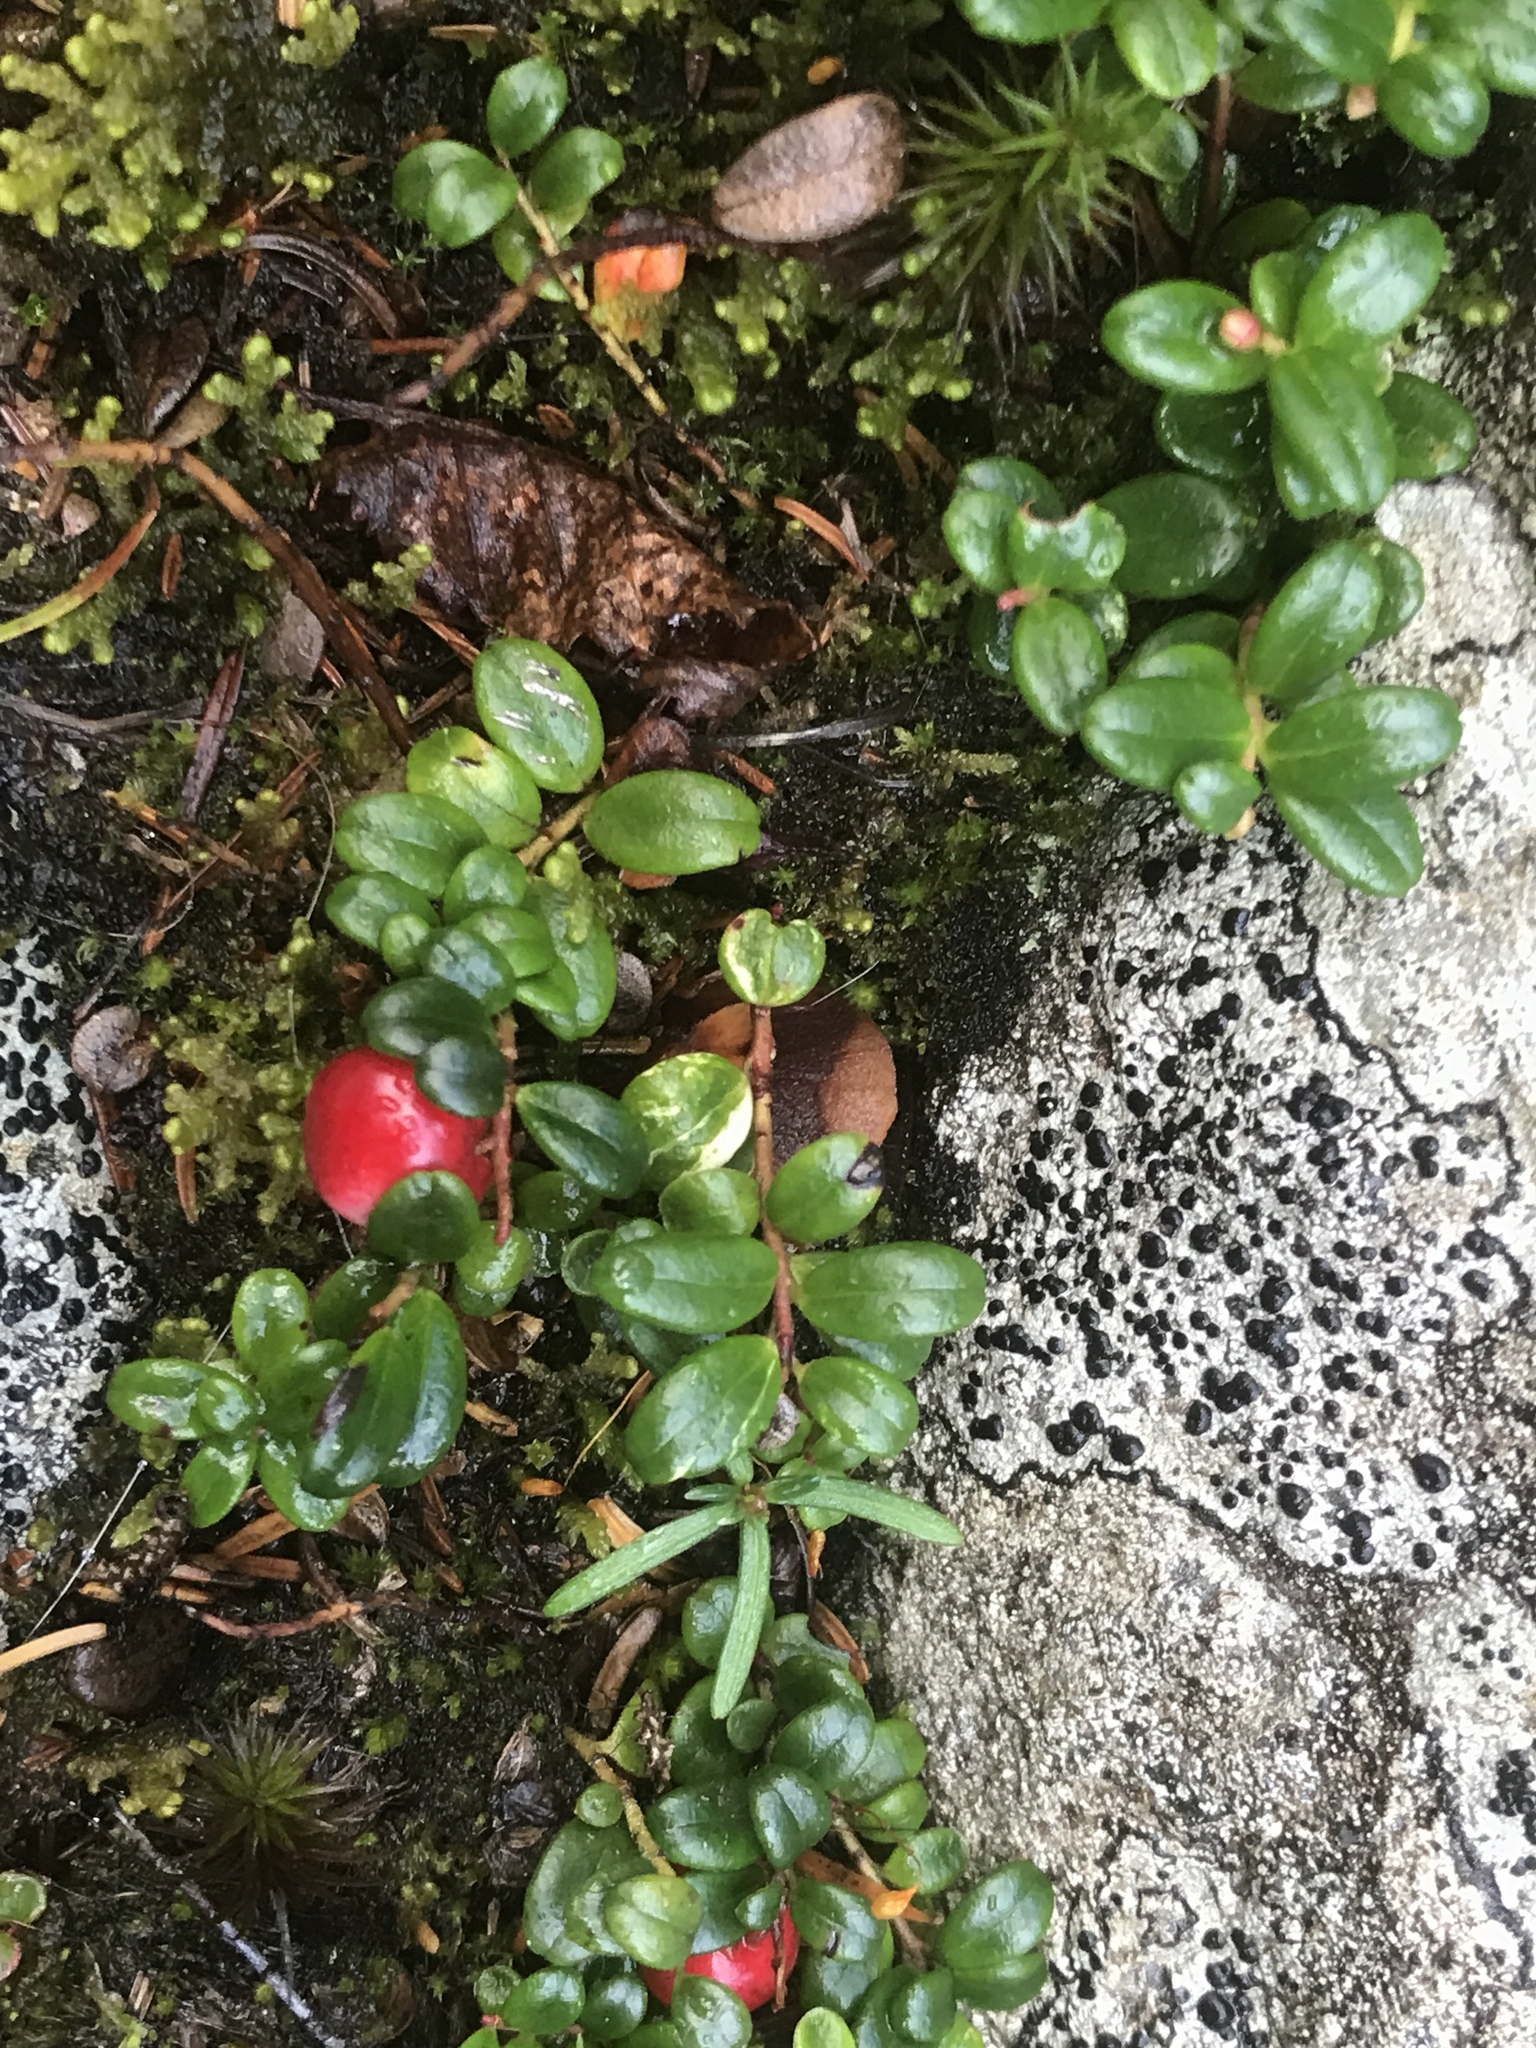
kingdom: Plantae
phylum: Tracheophyta
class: Magnoliopsida
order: Ericales
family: Ericaceae
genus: Vaccinium
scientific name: Vaccinium vitis-idaea
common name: Cowberry
